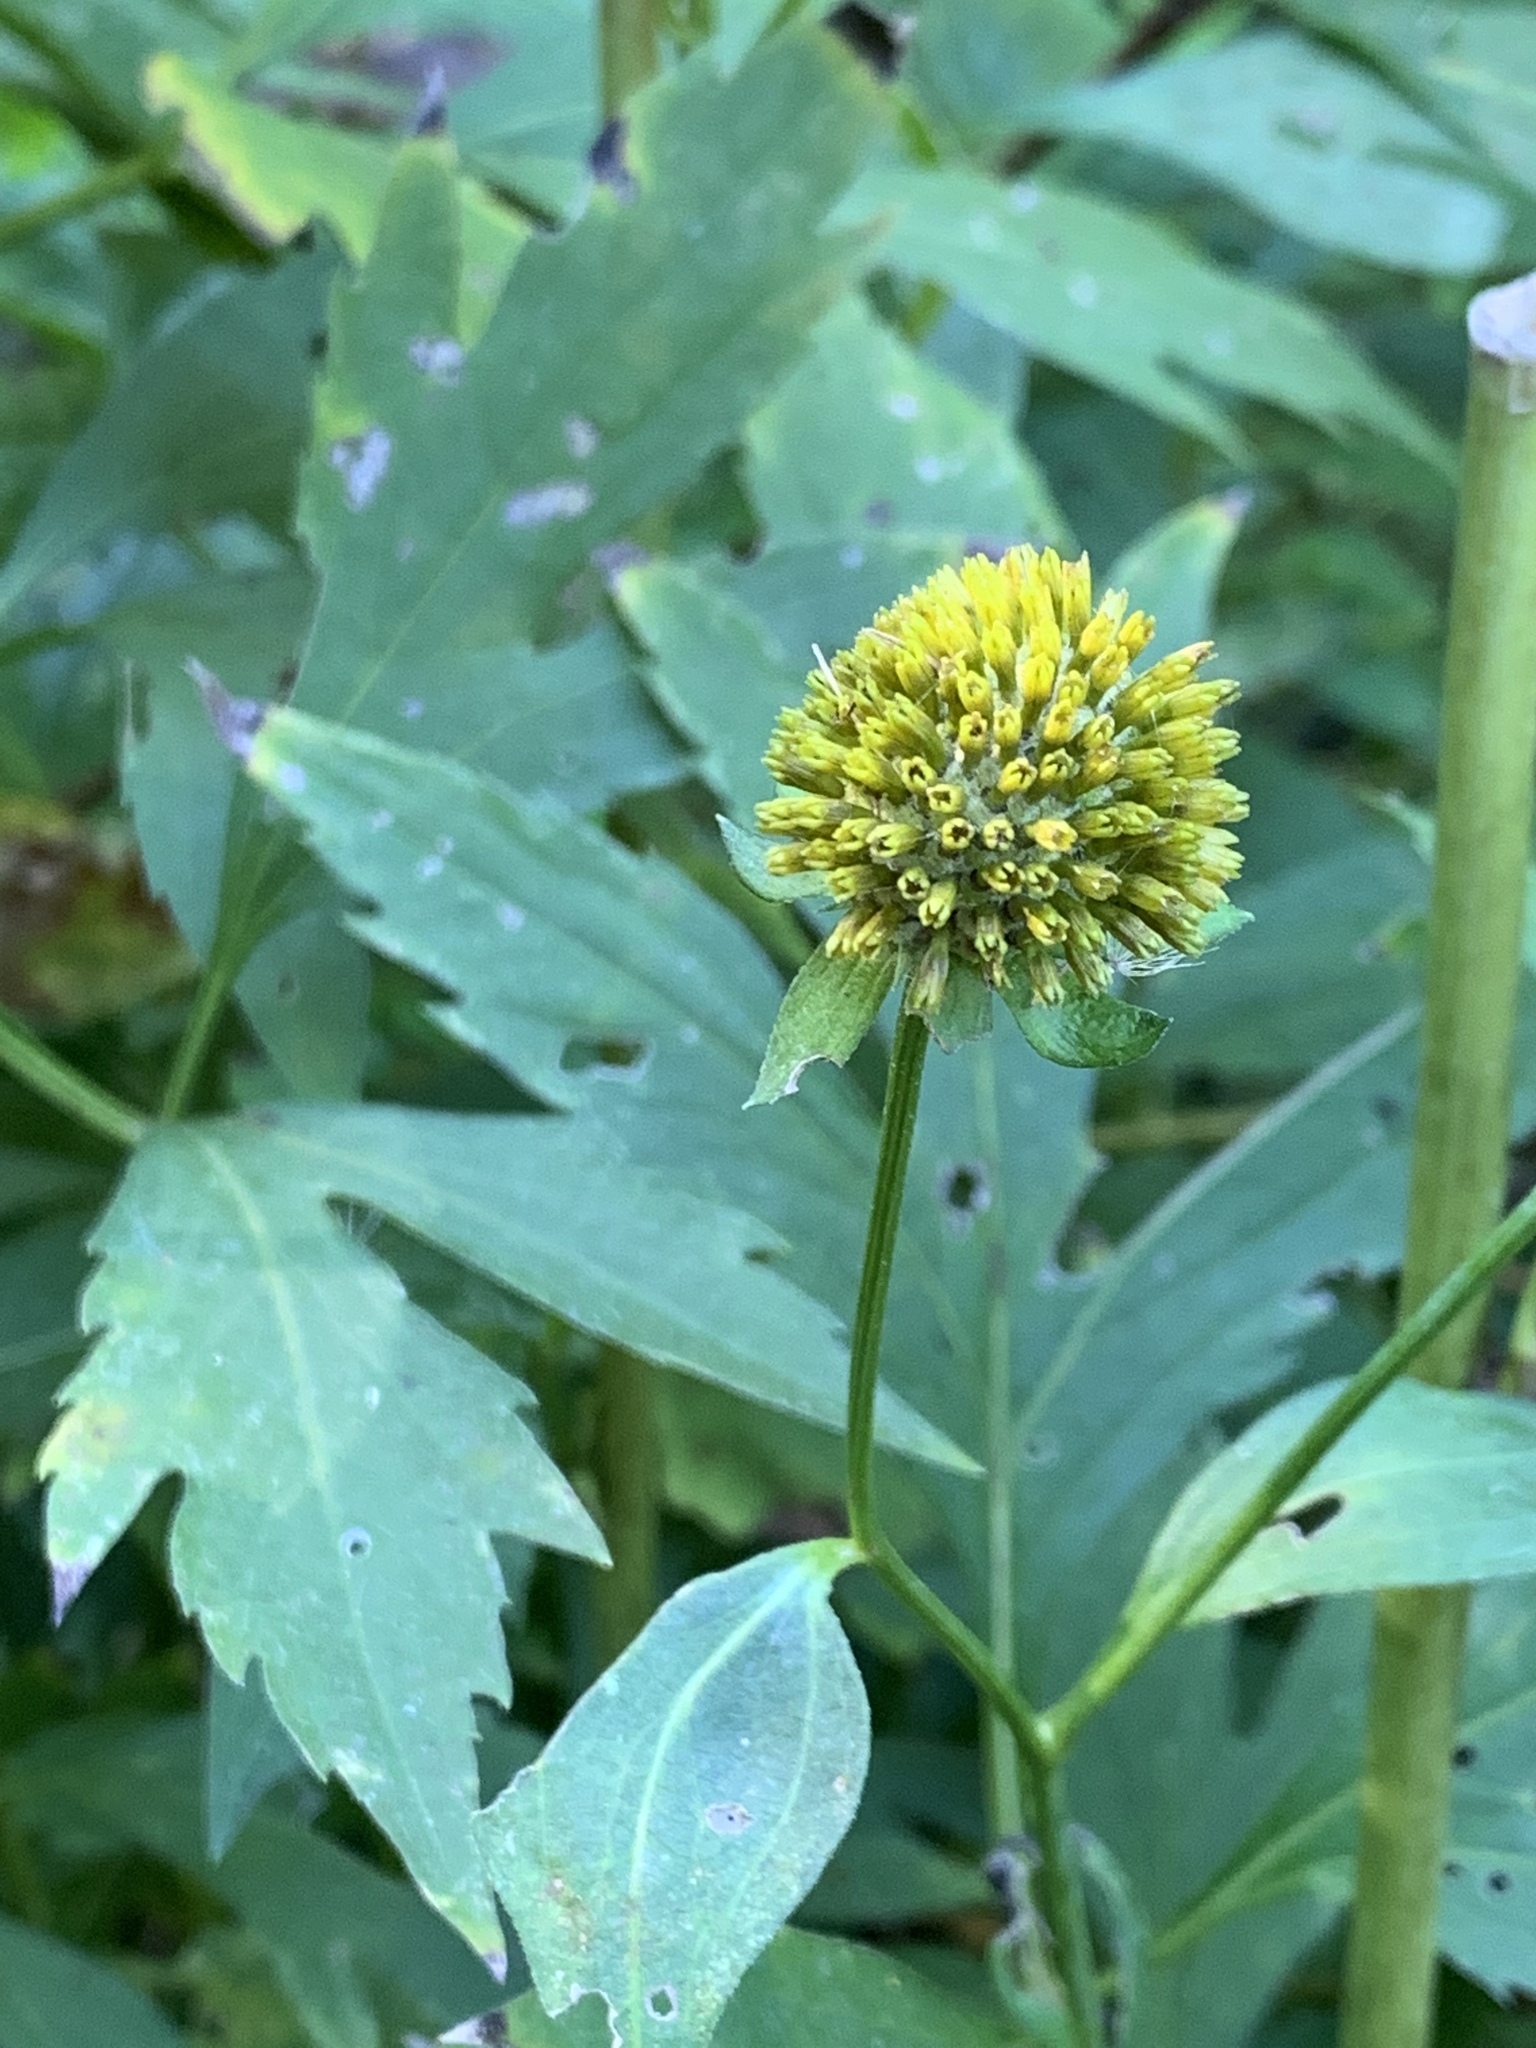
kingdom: Plantae
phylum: Tracheophyta
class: Magnoliopsida
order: Asterales
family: Asteraceae
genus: Rudbeckia
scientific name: Rudbeckia laciniata
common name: Coneflower
